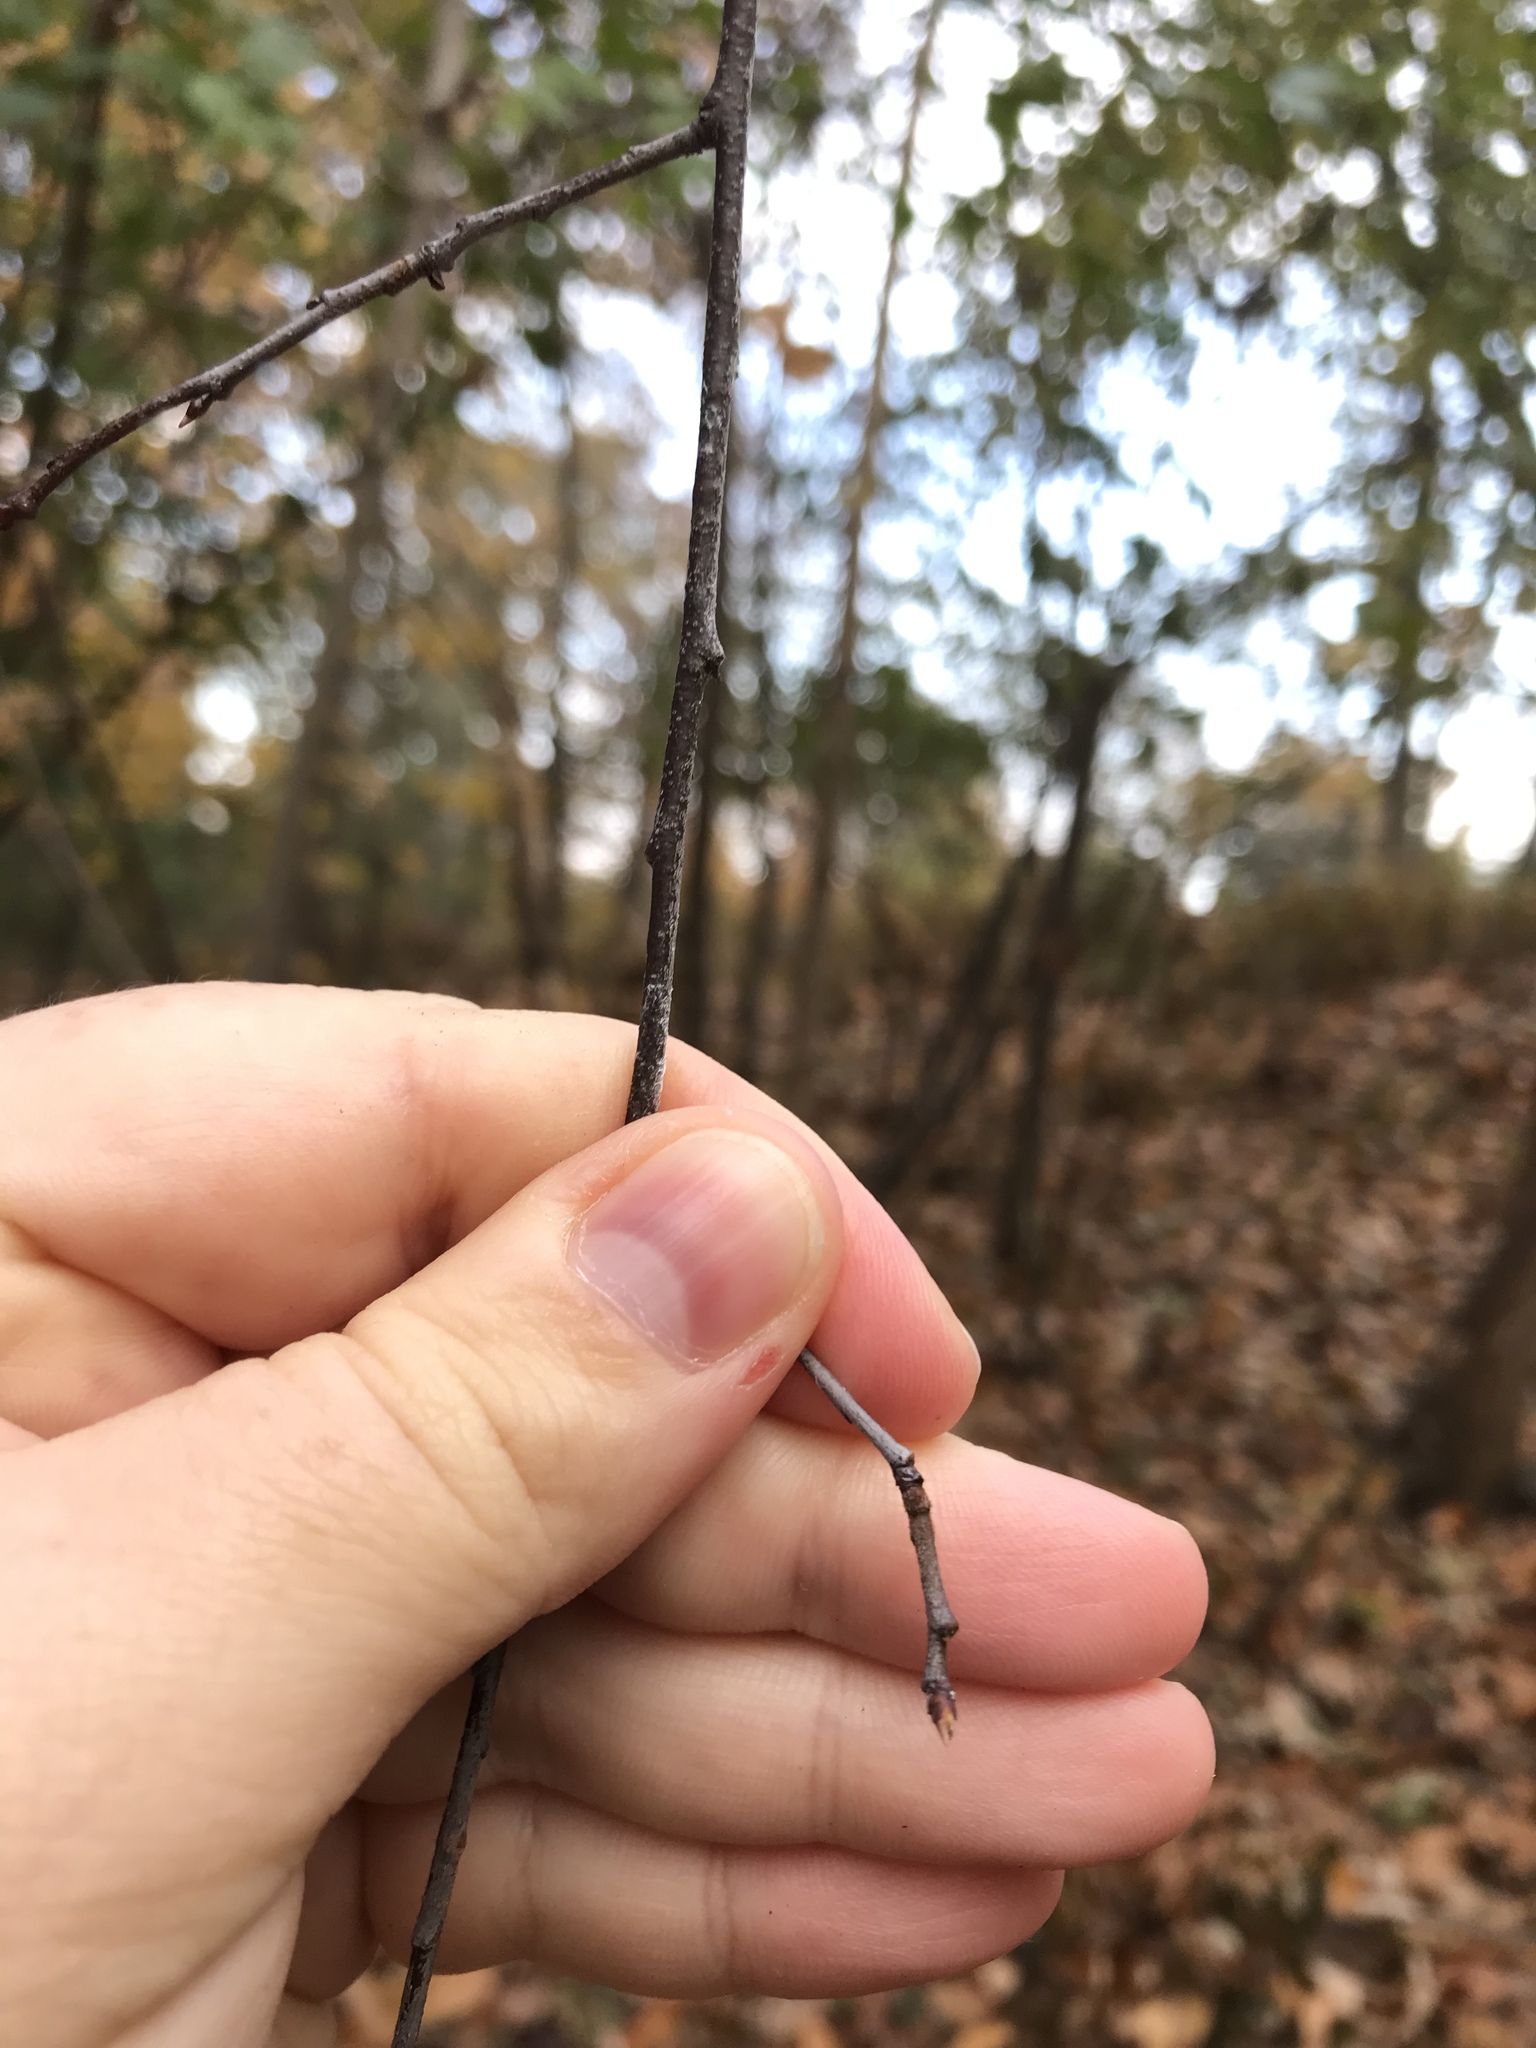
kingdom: Plantae
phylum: Tracheophyta
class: Magnoliopsida
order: Rosales
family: Rosaceae
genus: Prunus
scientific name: Prunus serotina
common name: Black cherry
